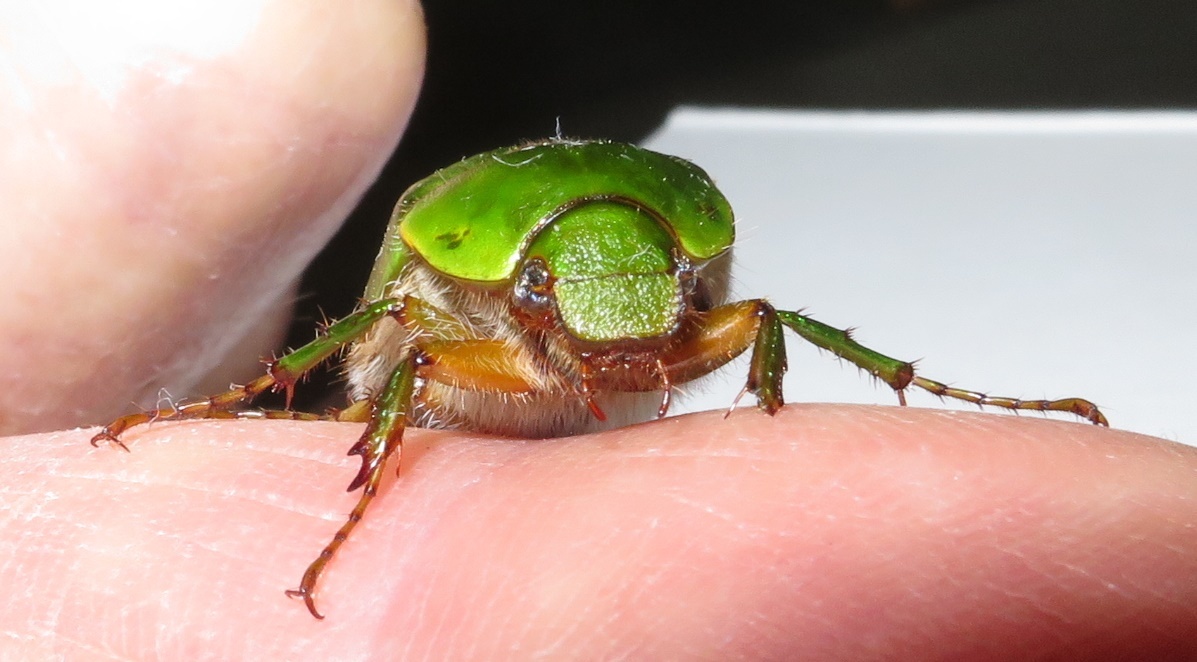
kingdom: Animalia
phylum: Arthropoda
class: Insecta
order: Coleoptera
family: Scarabaeidae
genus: Stethaspis
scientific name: Stethaspis longicornis
